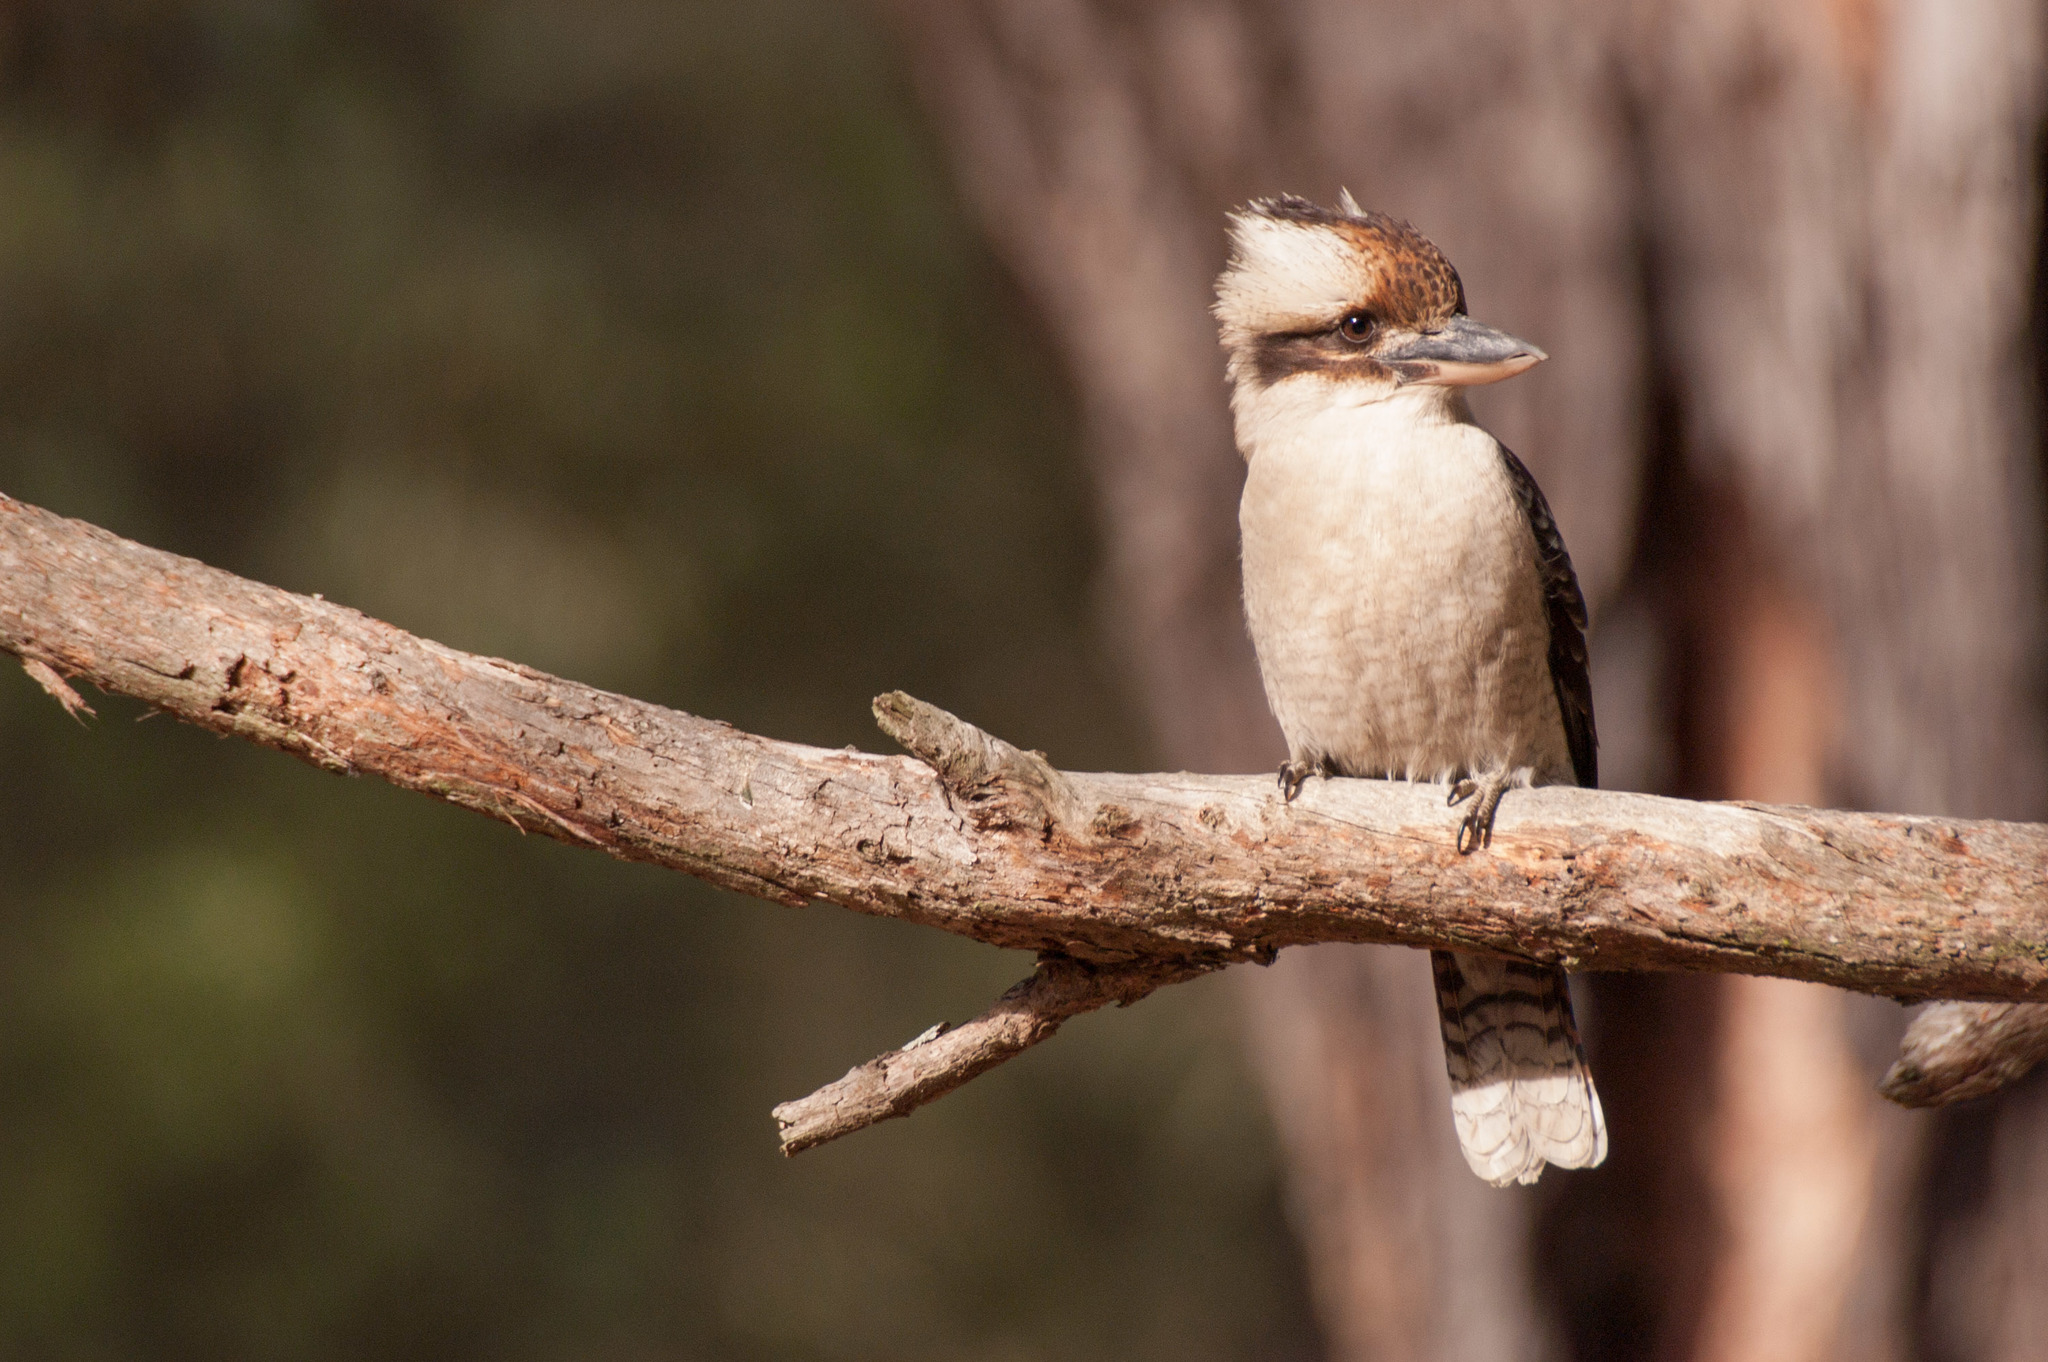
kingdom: Animalia
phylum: Chordata
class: Aves
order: Coraciiformes
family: Alcedinidae
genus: Dacelo
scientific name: Dacelo novaeguineae
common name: Laughing kookaburra
